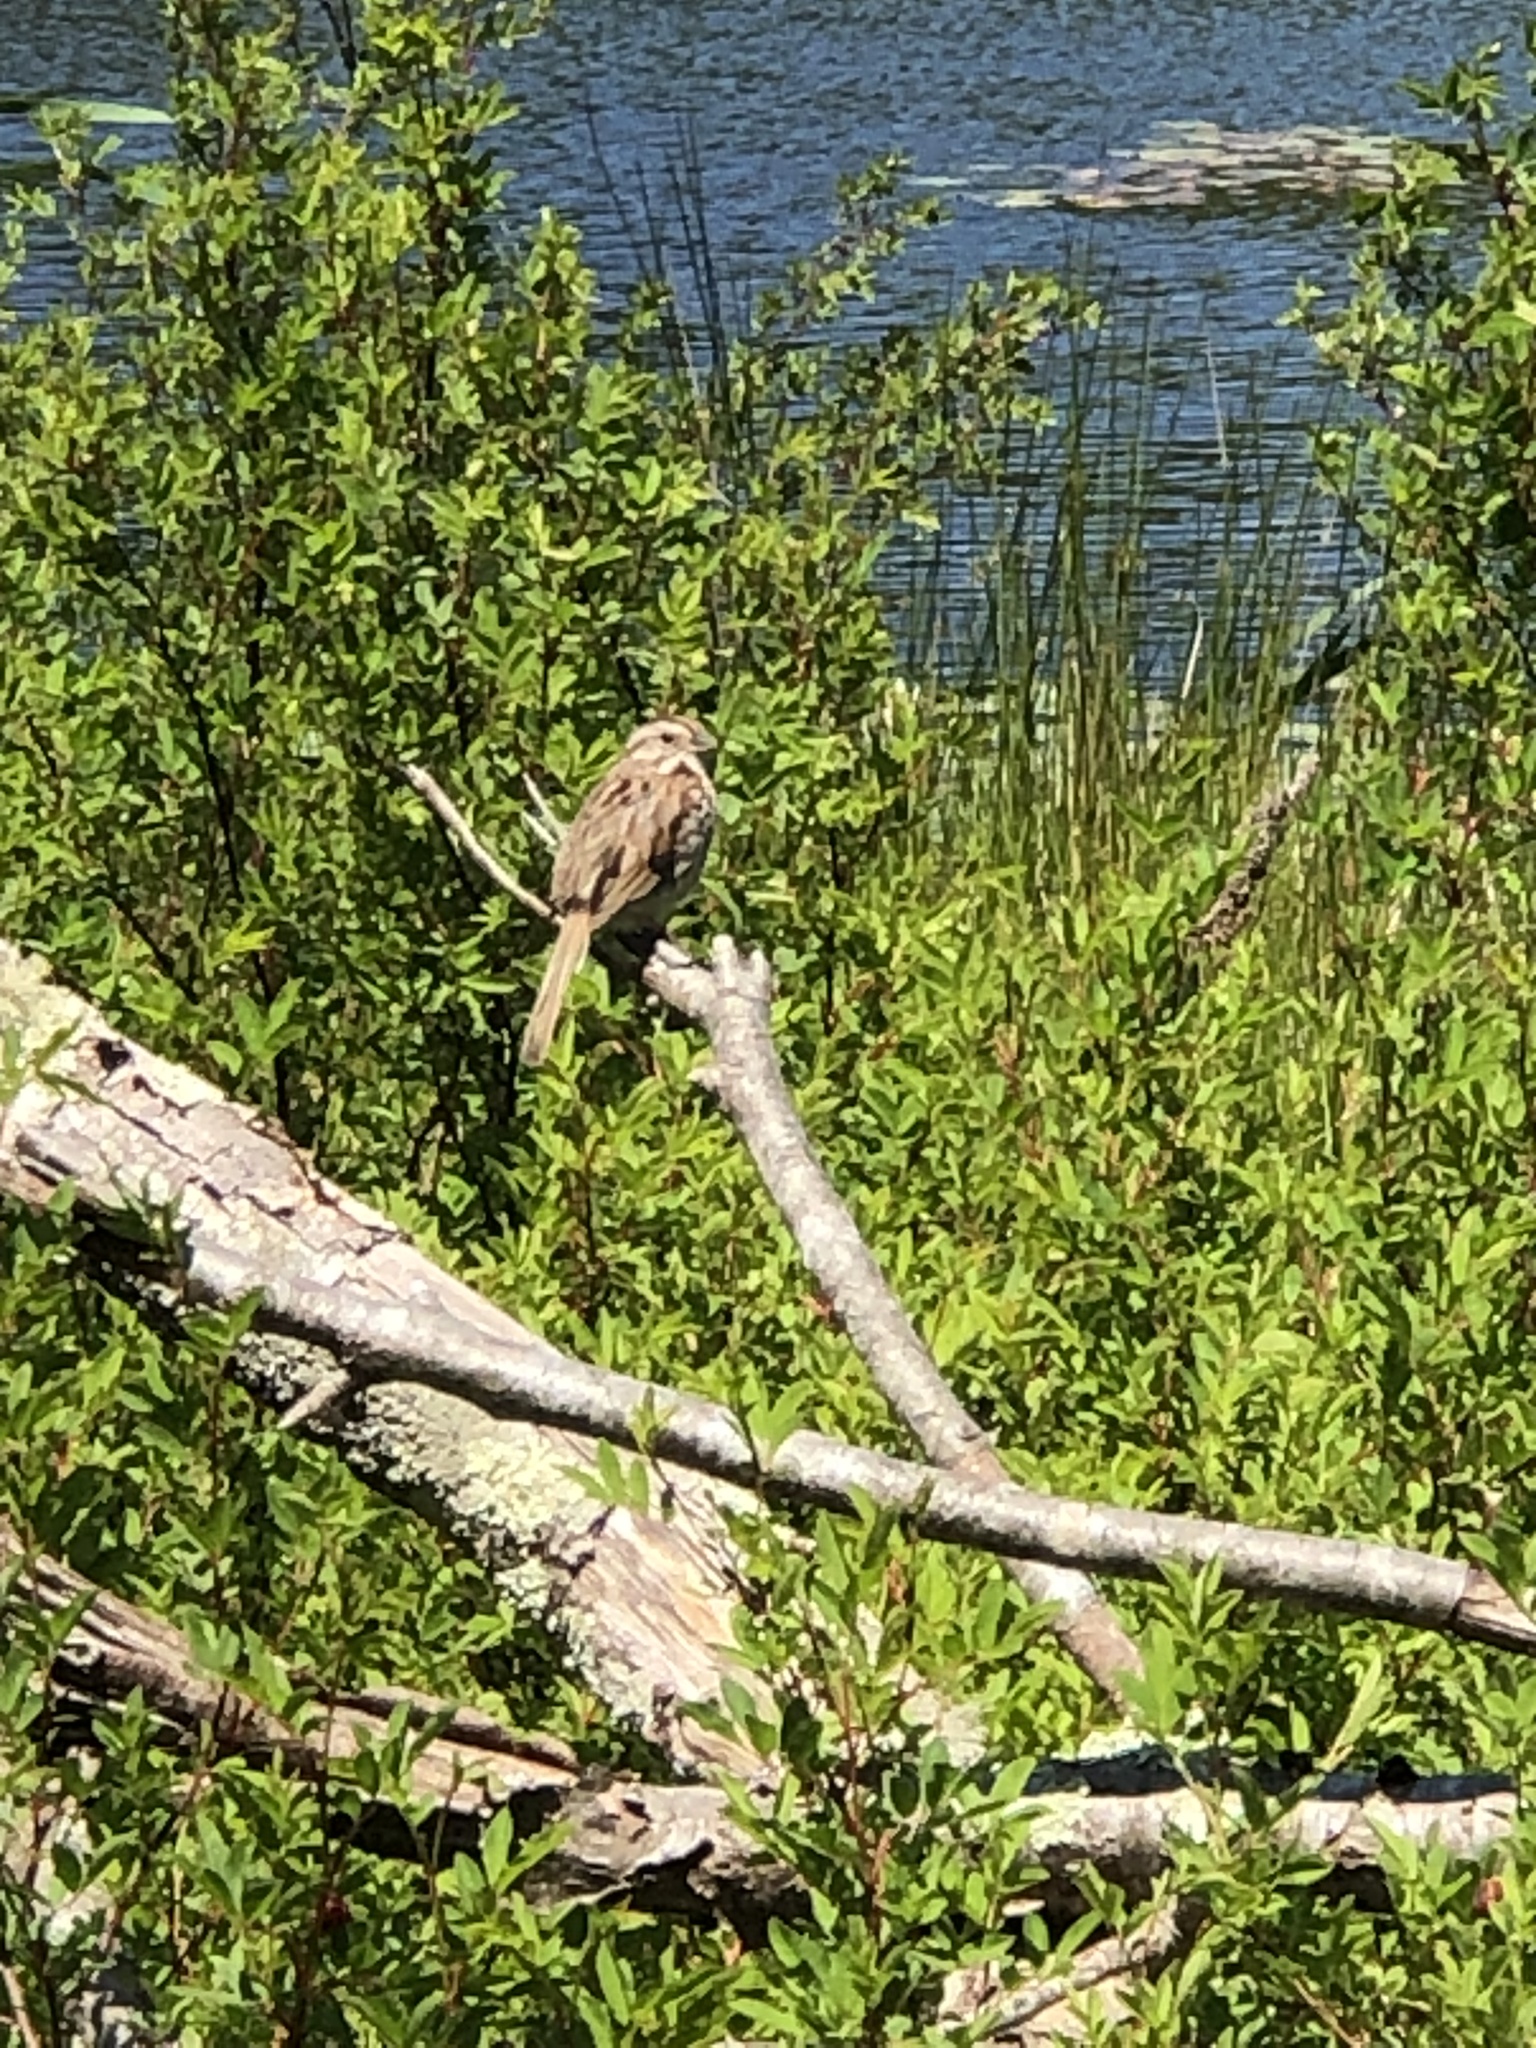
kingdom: Animalia
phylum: Chordata
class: Aves
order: Passeriformes
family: Passerellidae
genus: Melospiza
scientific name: Melospiza melodia
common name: Song sparrow
